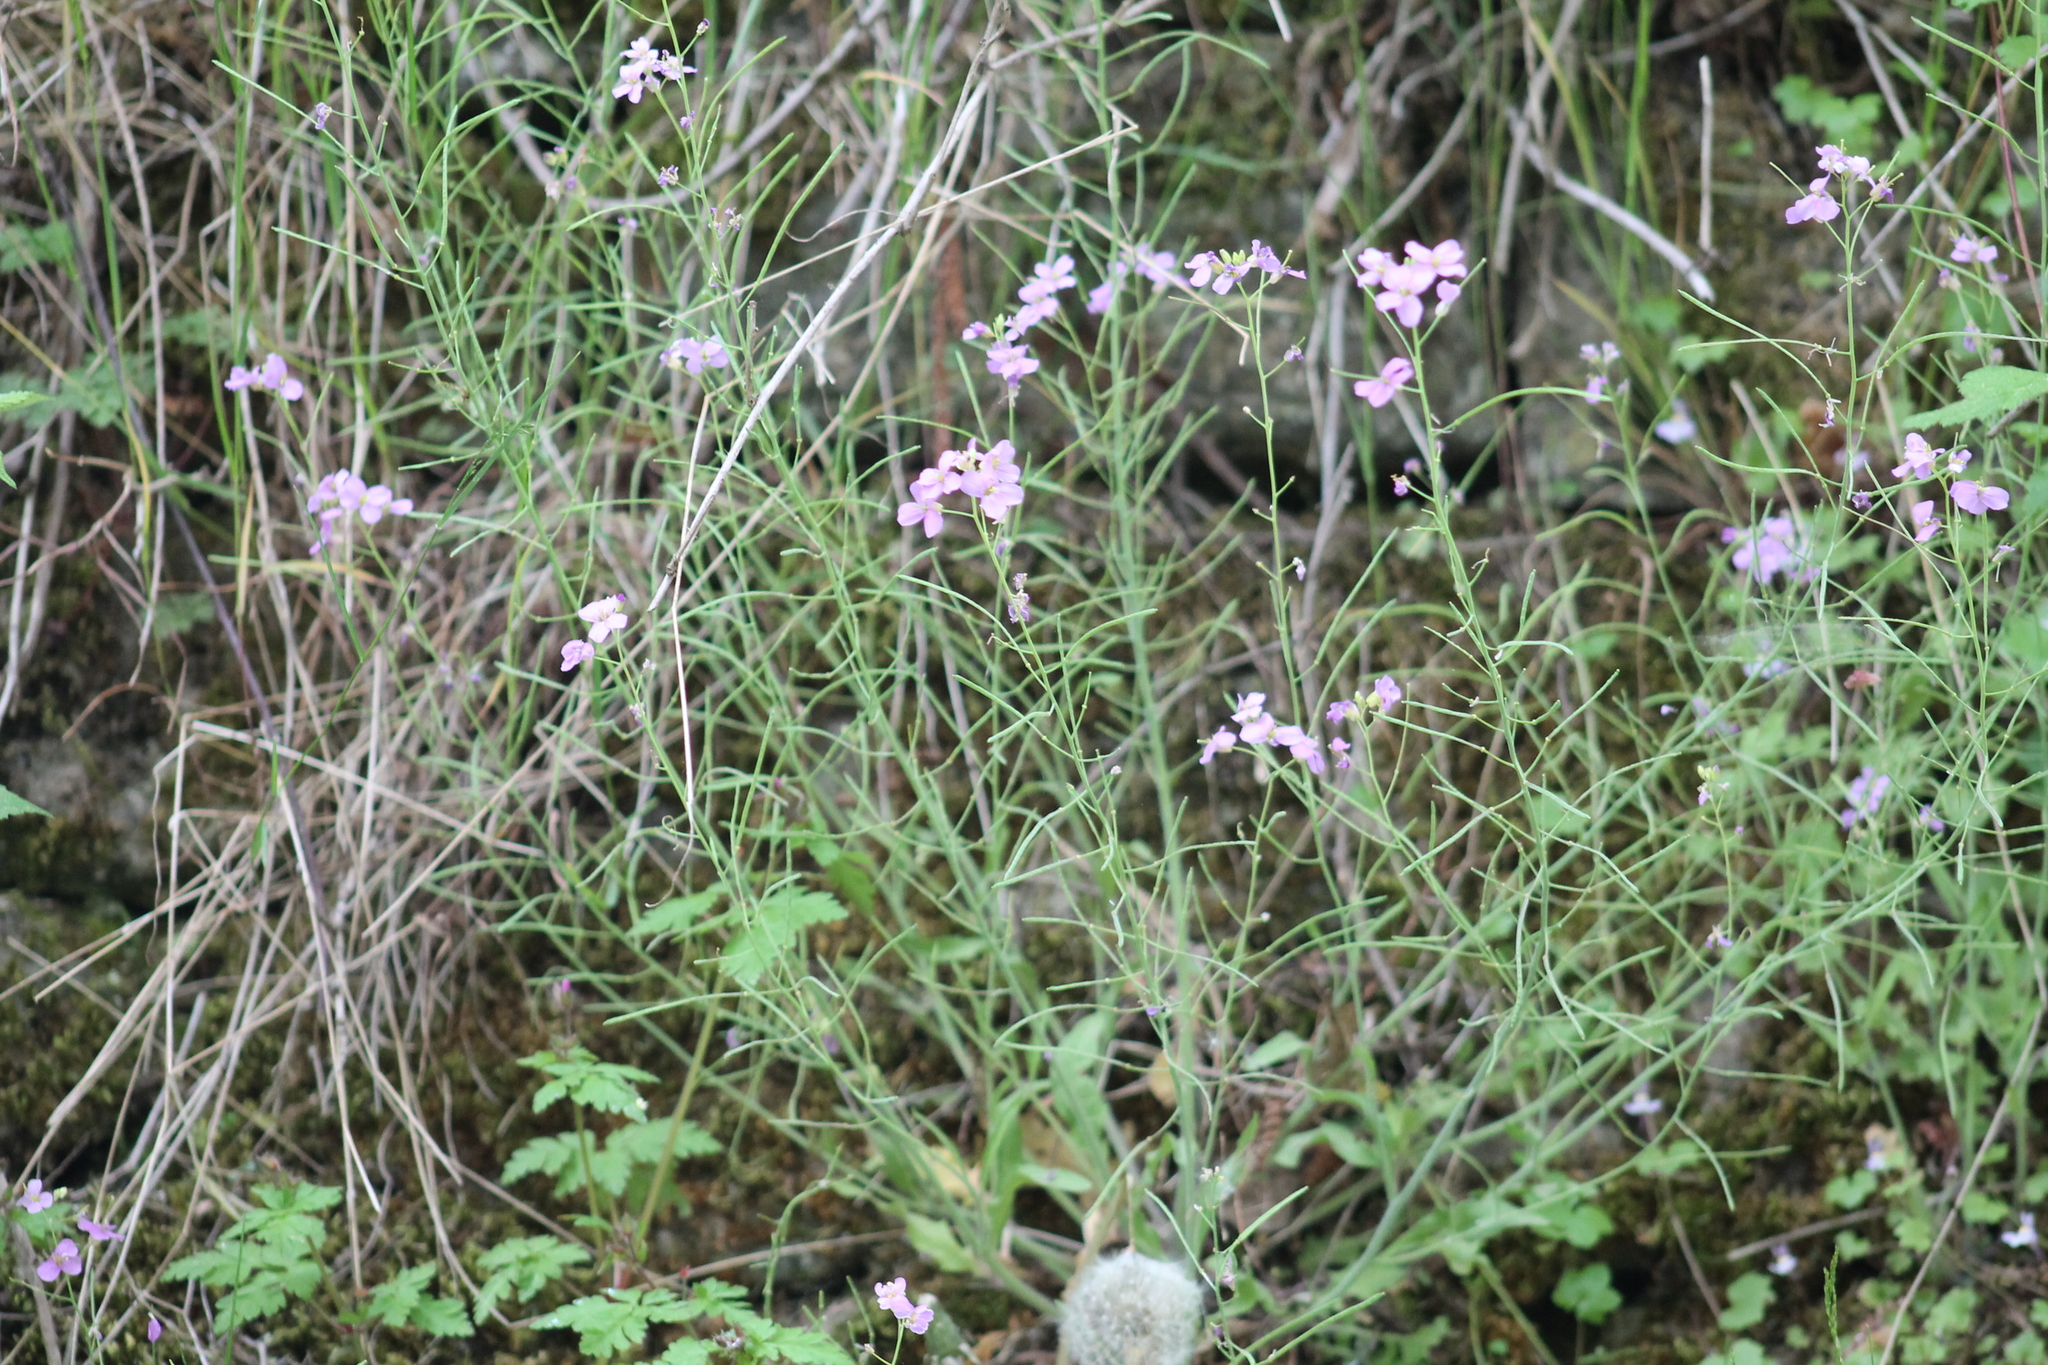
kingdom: Plantae
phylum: Tracheophyta
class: Magnoliopsida
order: Brassicales
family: Brassicaceae
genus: Arabidopsis
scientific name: Arabidopsis arenosa
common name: Sand rock-cress
